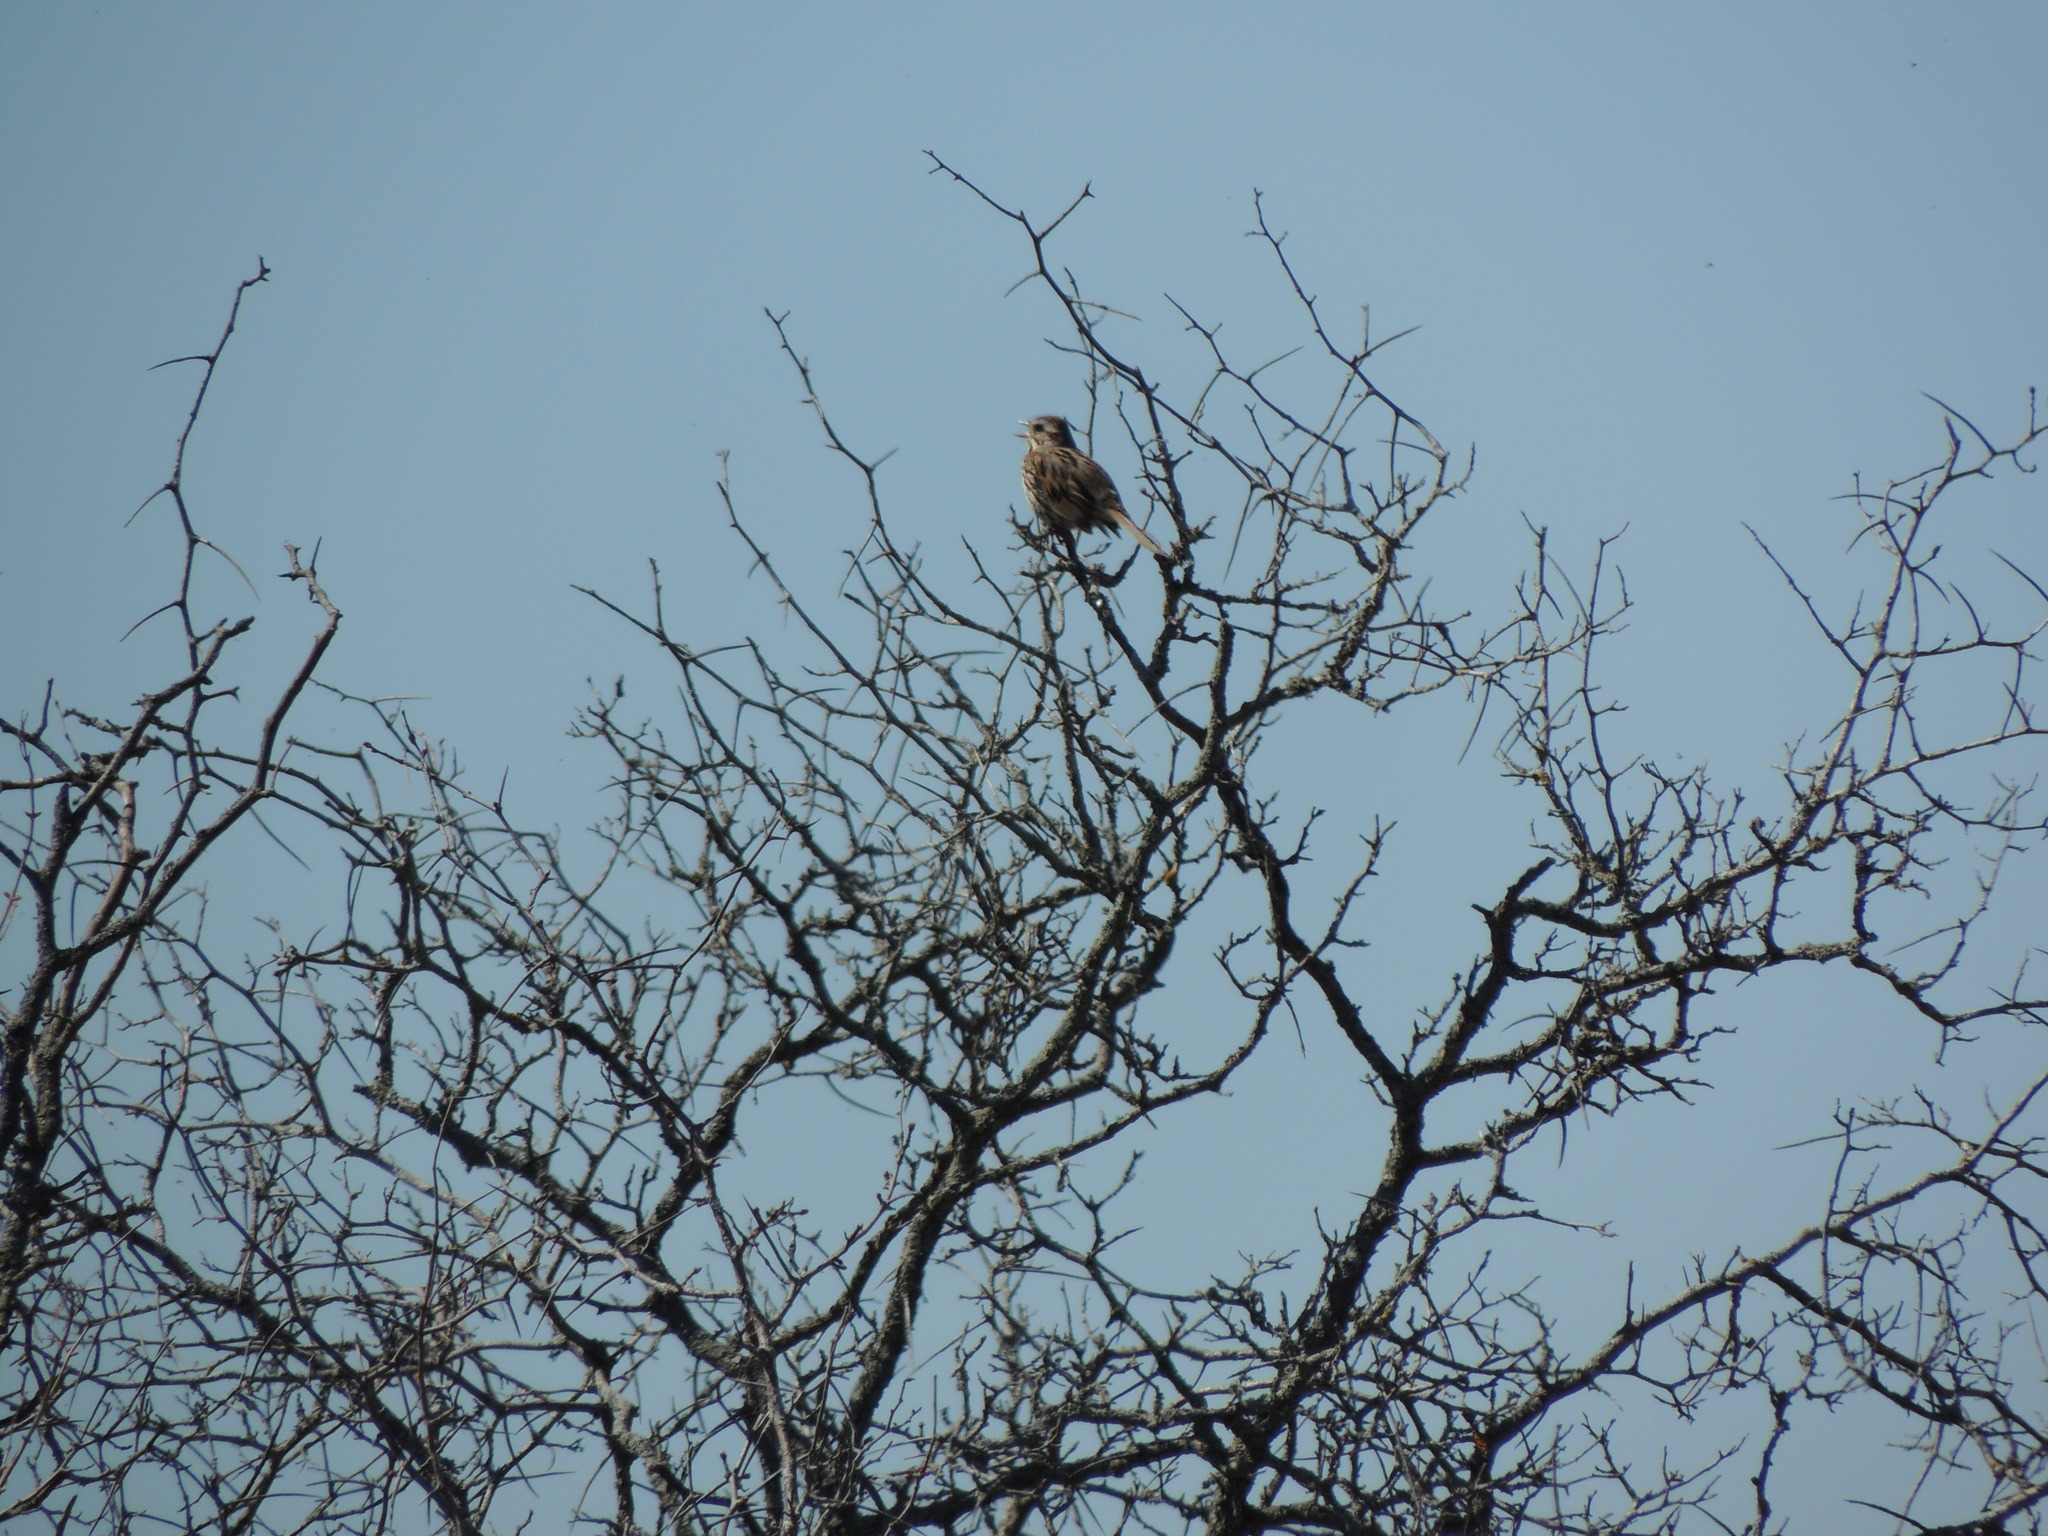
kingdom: Animalia
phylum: Chordata
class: Aves
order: Passeriformes
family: Passerellidae
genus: Melospiza
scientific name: Melospiza melodia
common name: Song sparrow
